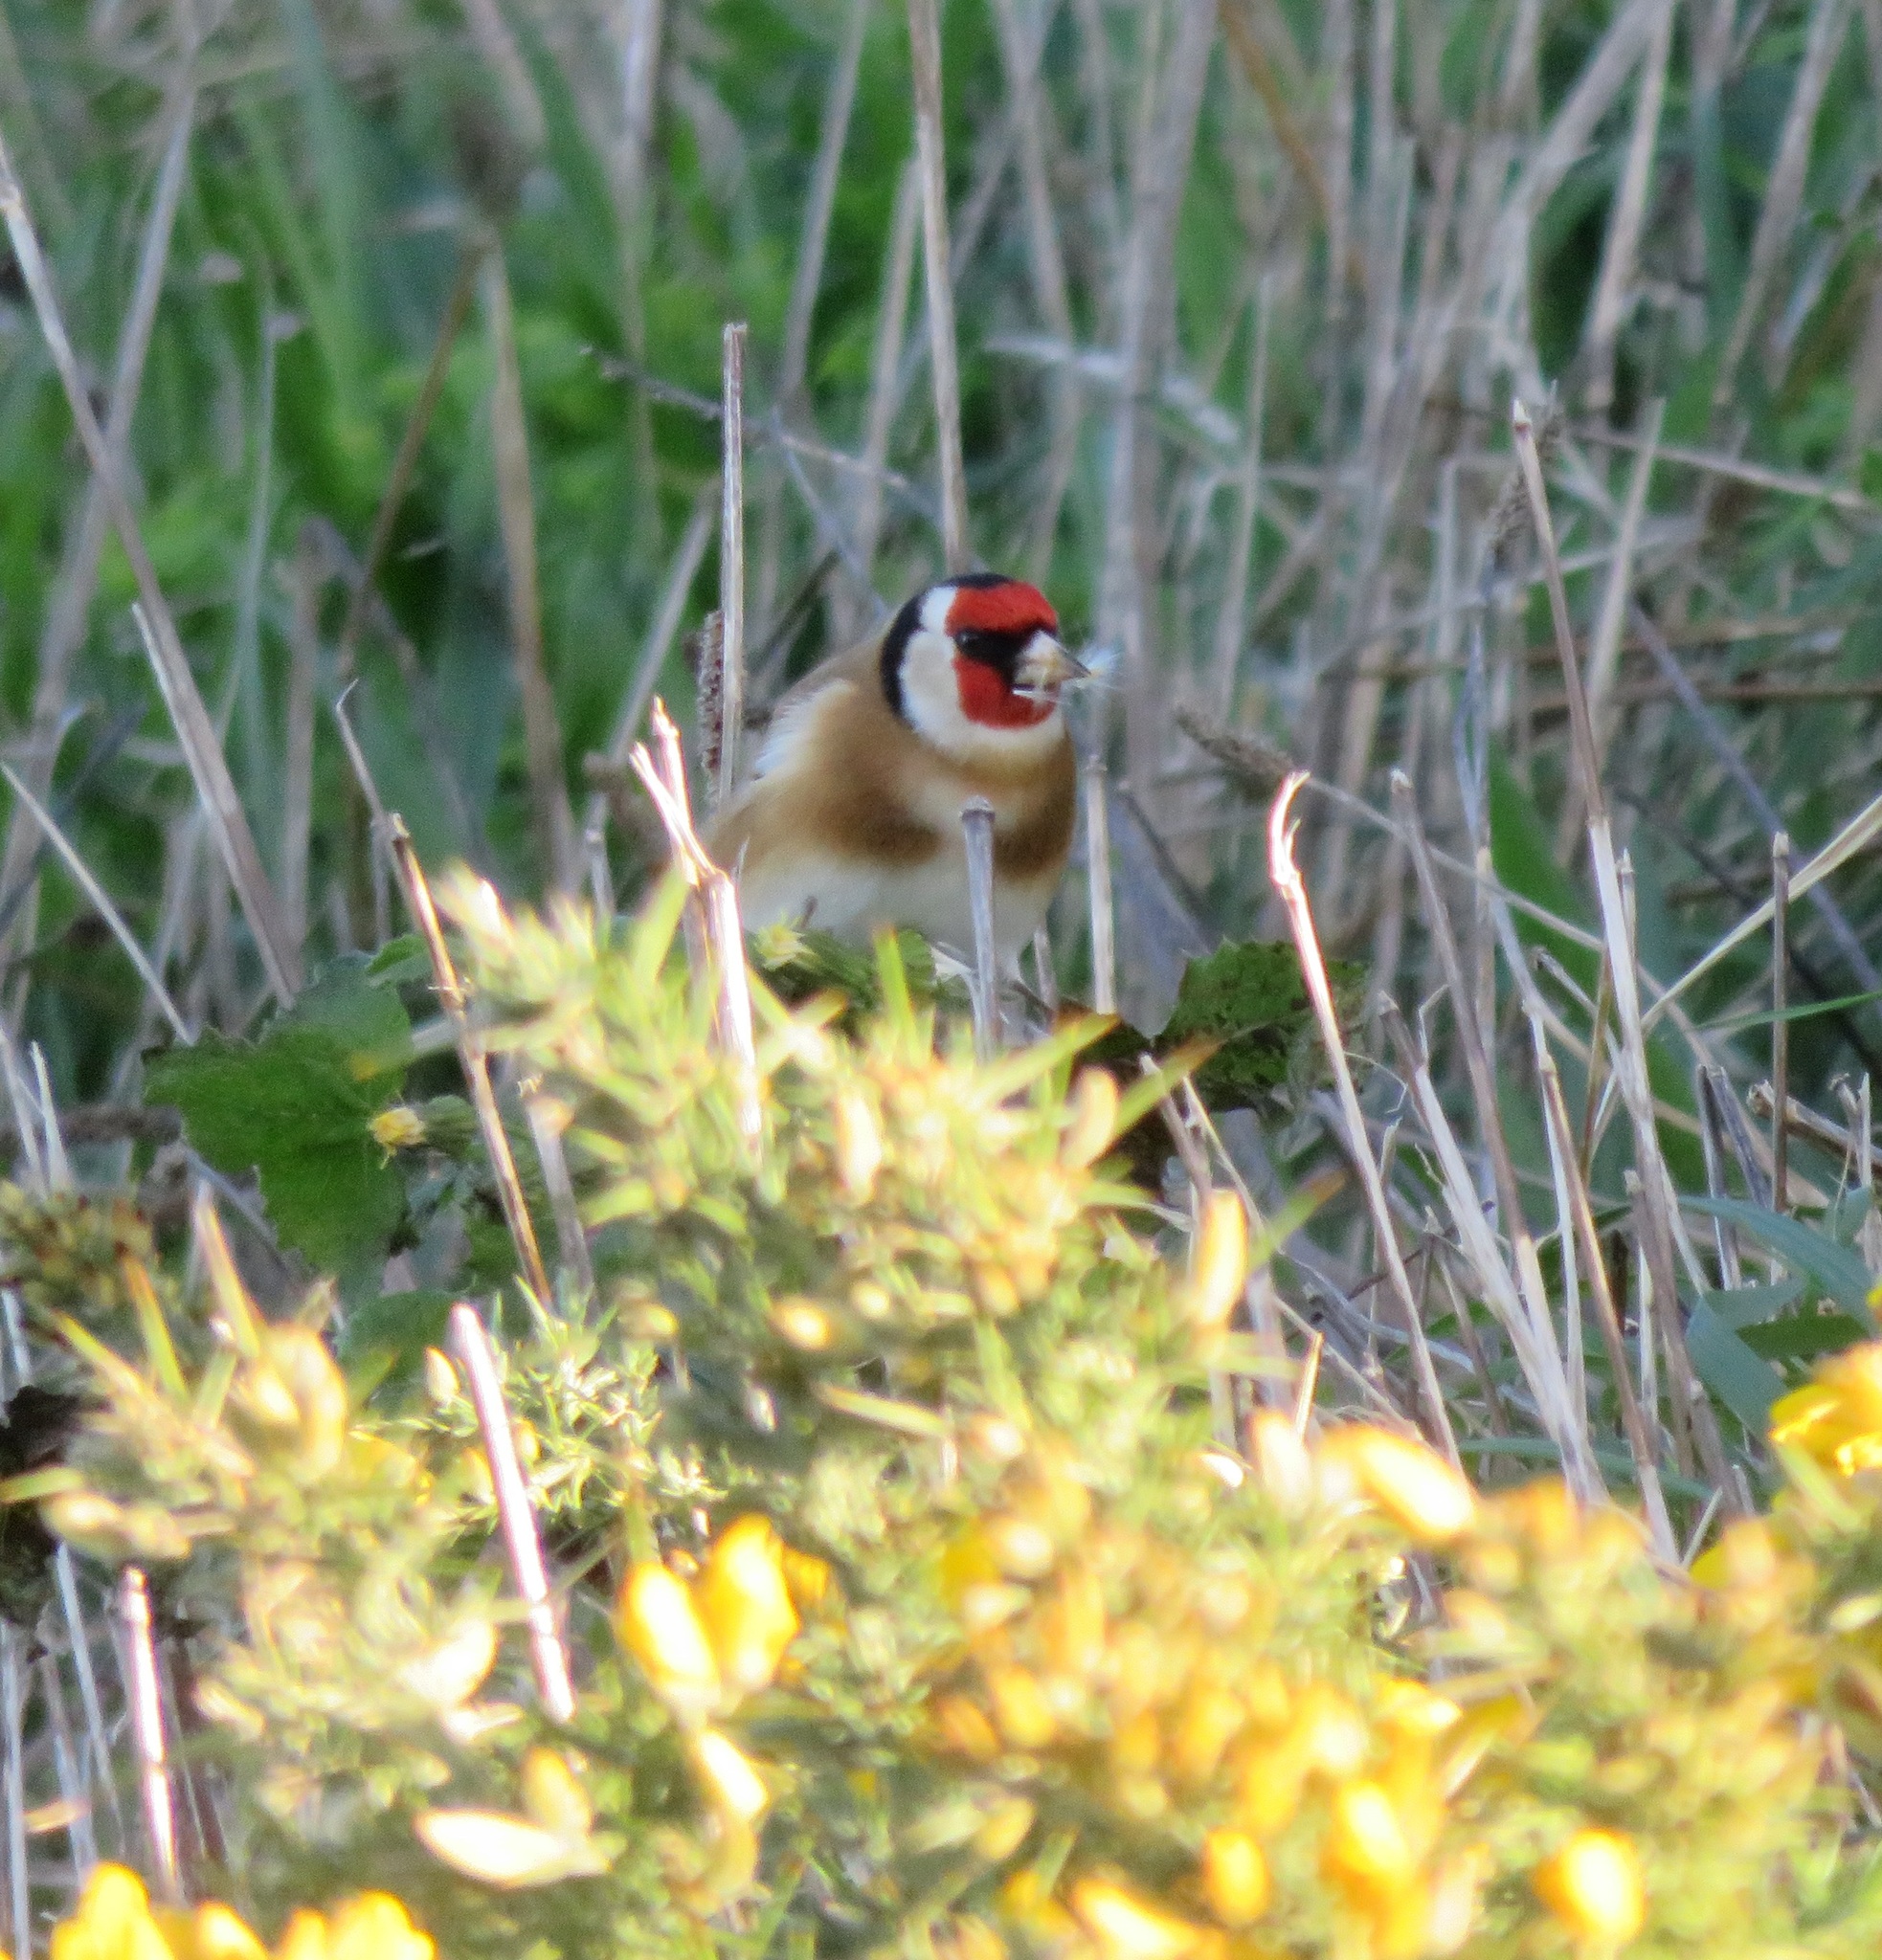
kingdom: Animalia
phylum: Chordata
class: Aves
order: Passeriformes
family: Fringillidae
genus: Carduelis
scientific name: Carduelis carduelis
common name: European goldfinch
